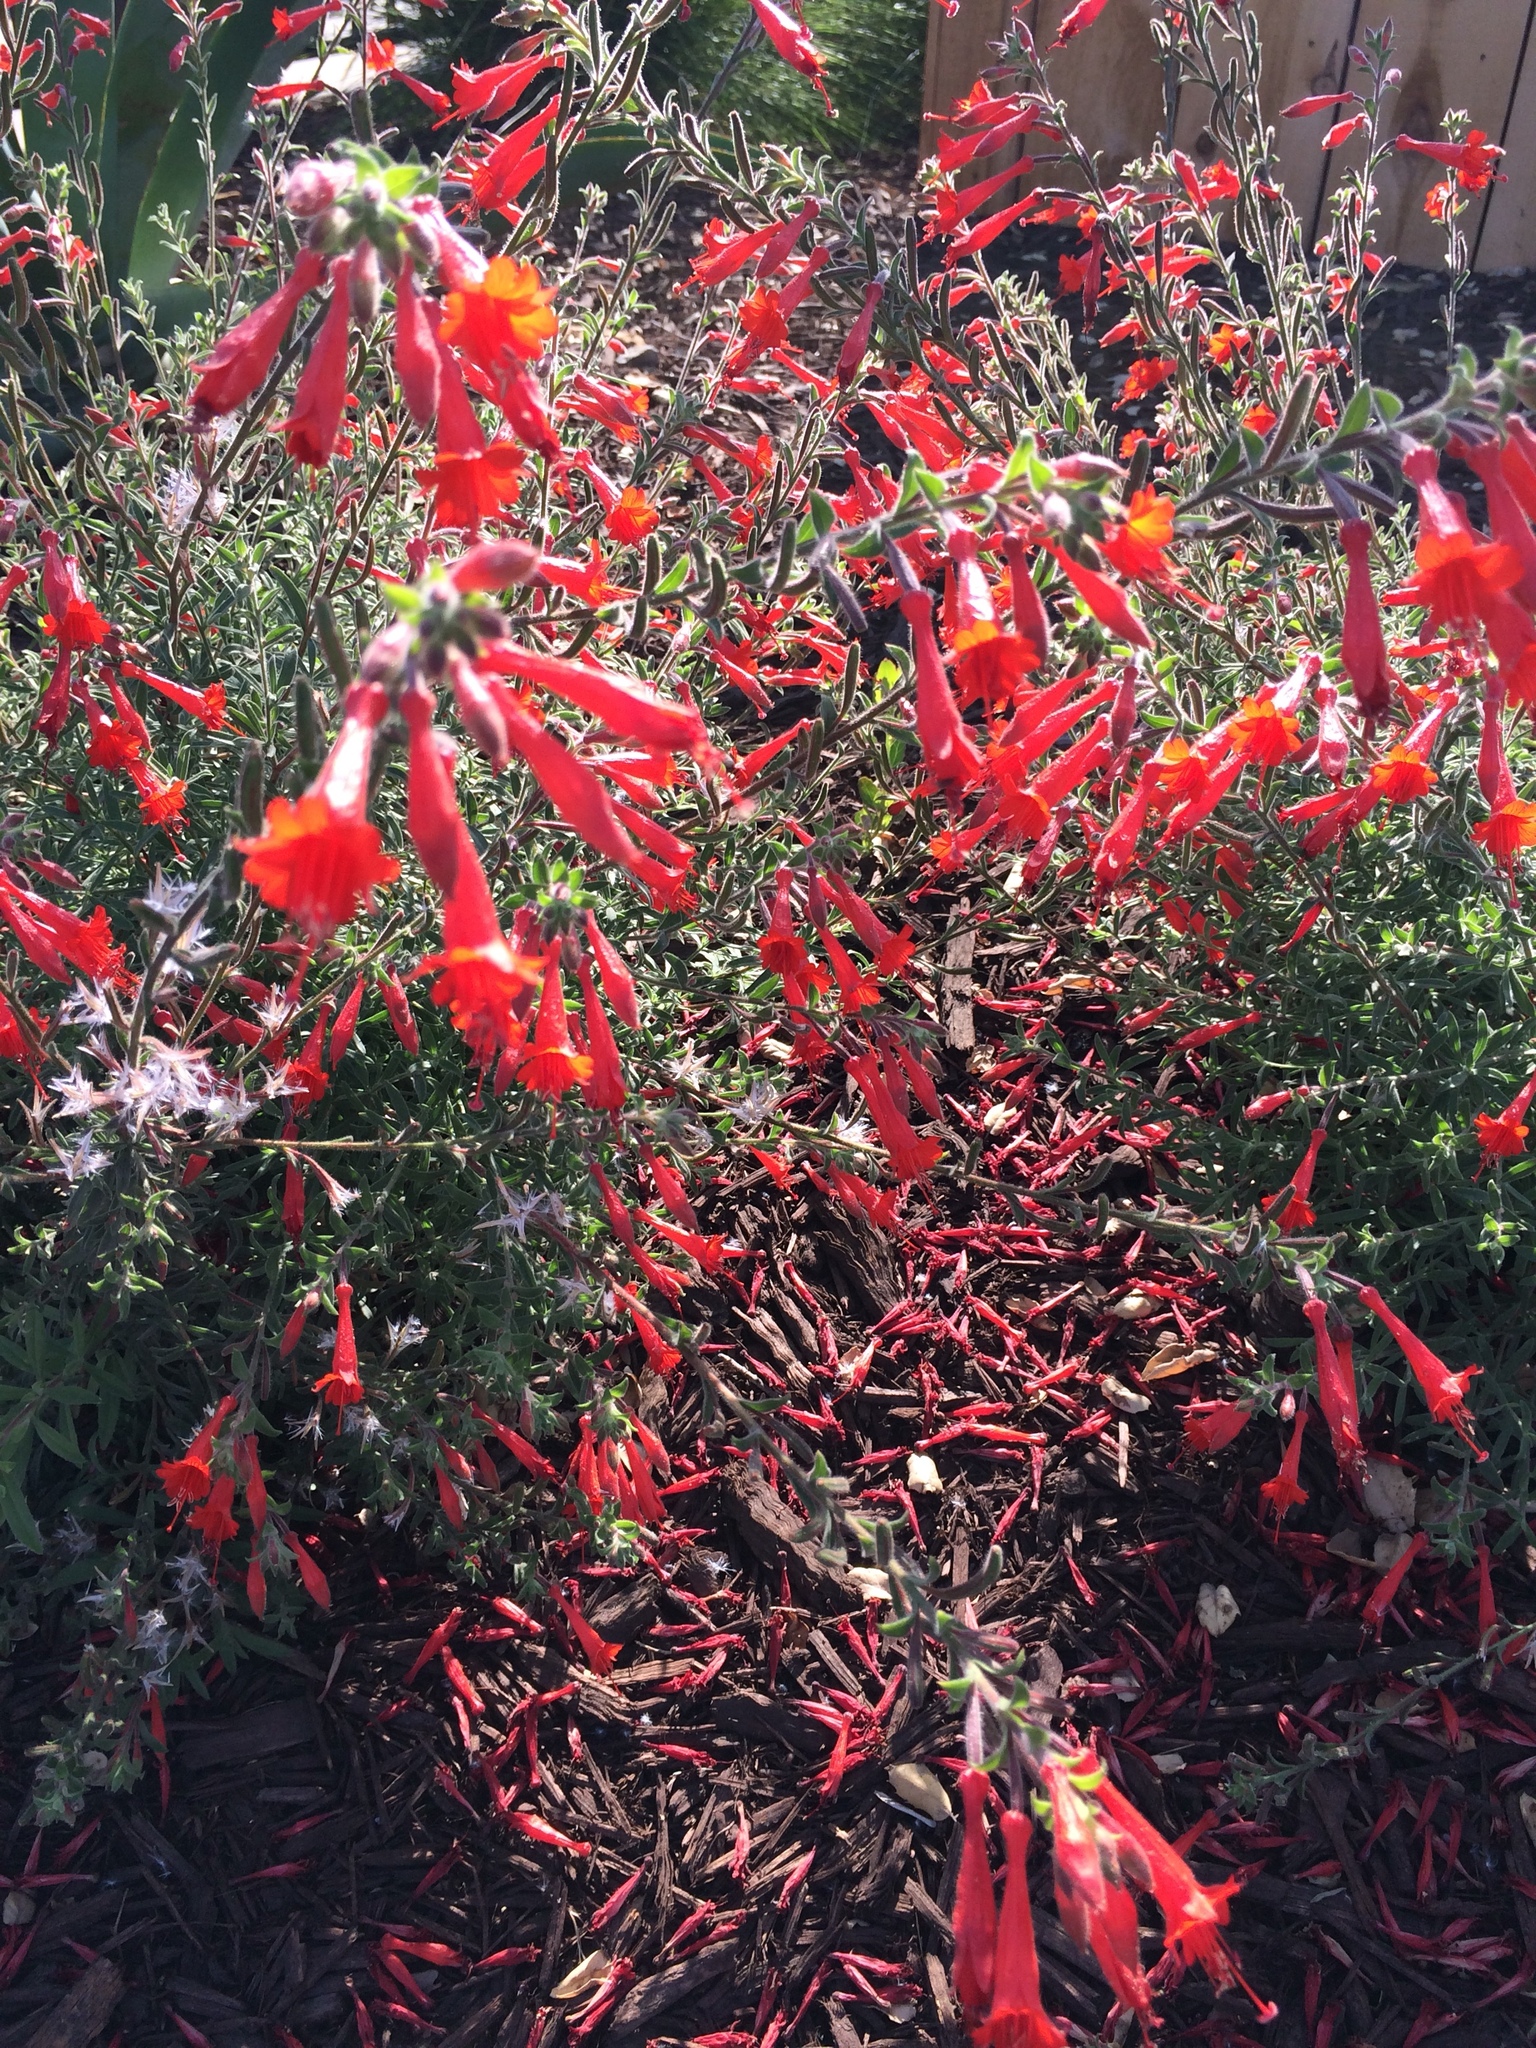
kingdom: Plantae
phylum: Tracheophyta
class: Magnoliopsida
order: Myrtales
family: Onagraceae
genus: Epilobium
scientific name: Epilobium canum
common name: California-fuchsia
